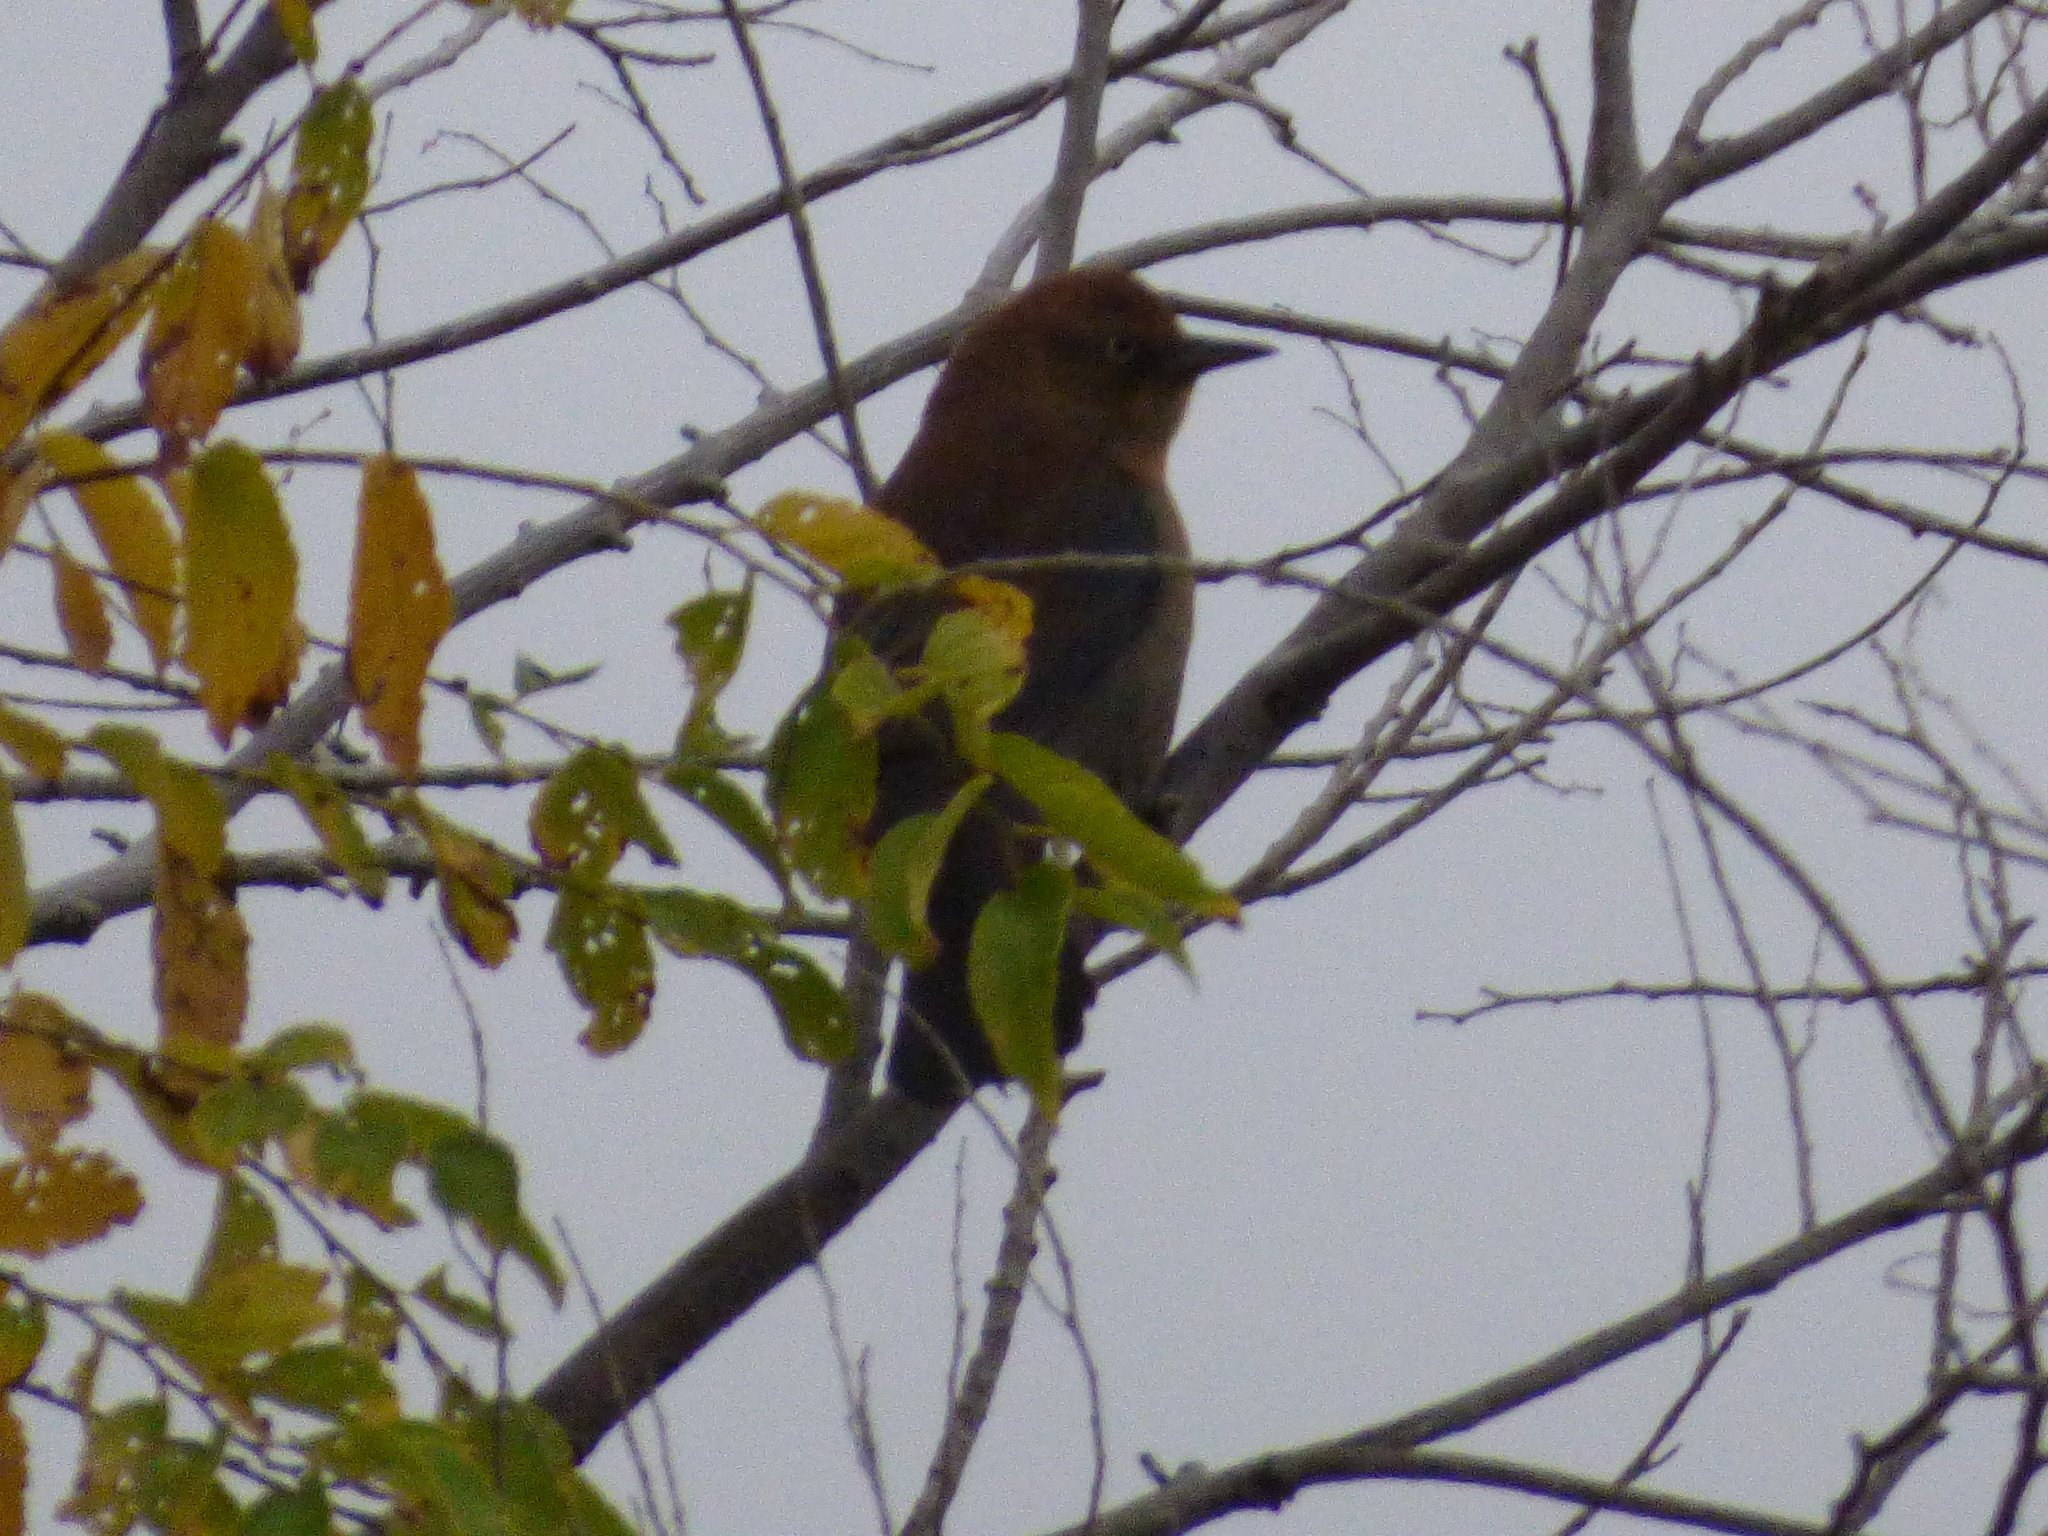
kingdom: Animalia
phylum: Chordata
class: Aves
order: Passeriformes
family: Icteridae
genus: Euphagus
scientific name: Euphagus carolinus
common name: Rusty blackbird
